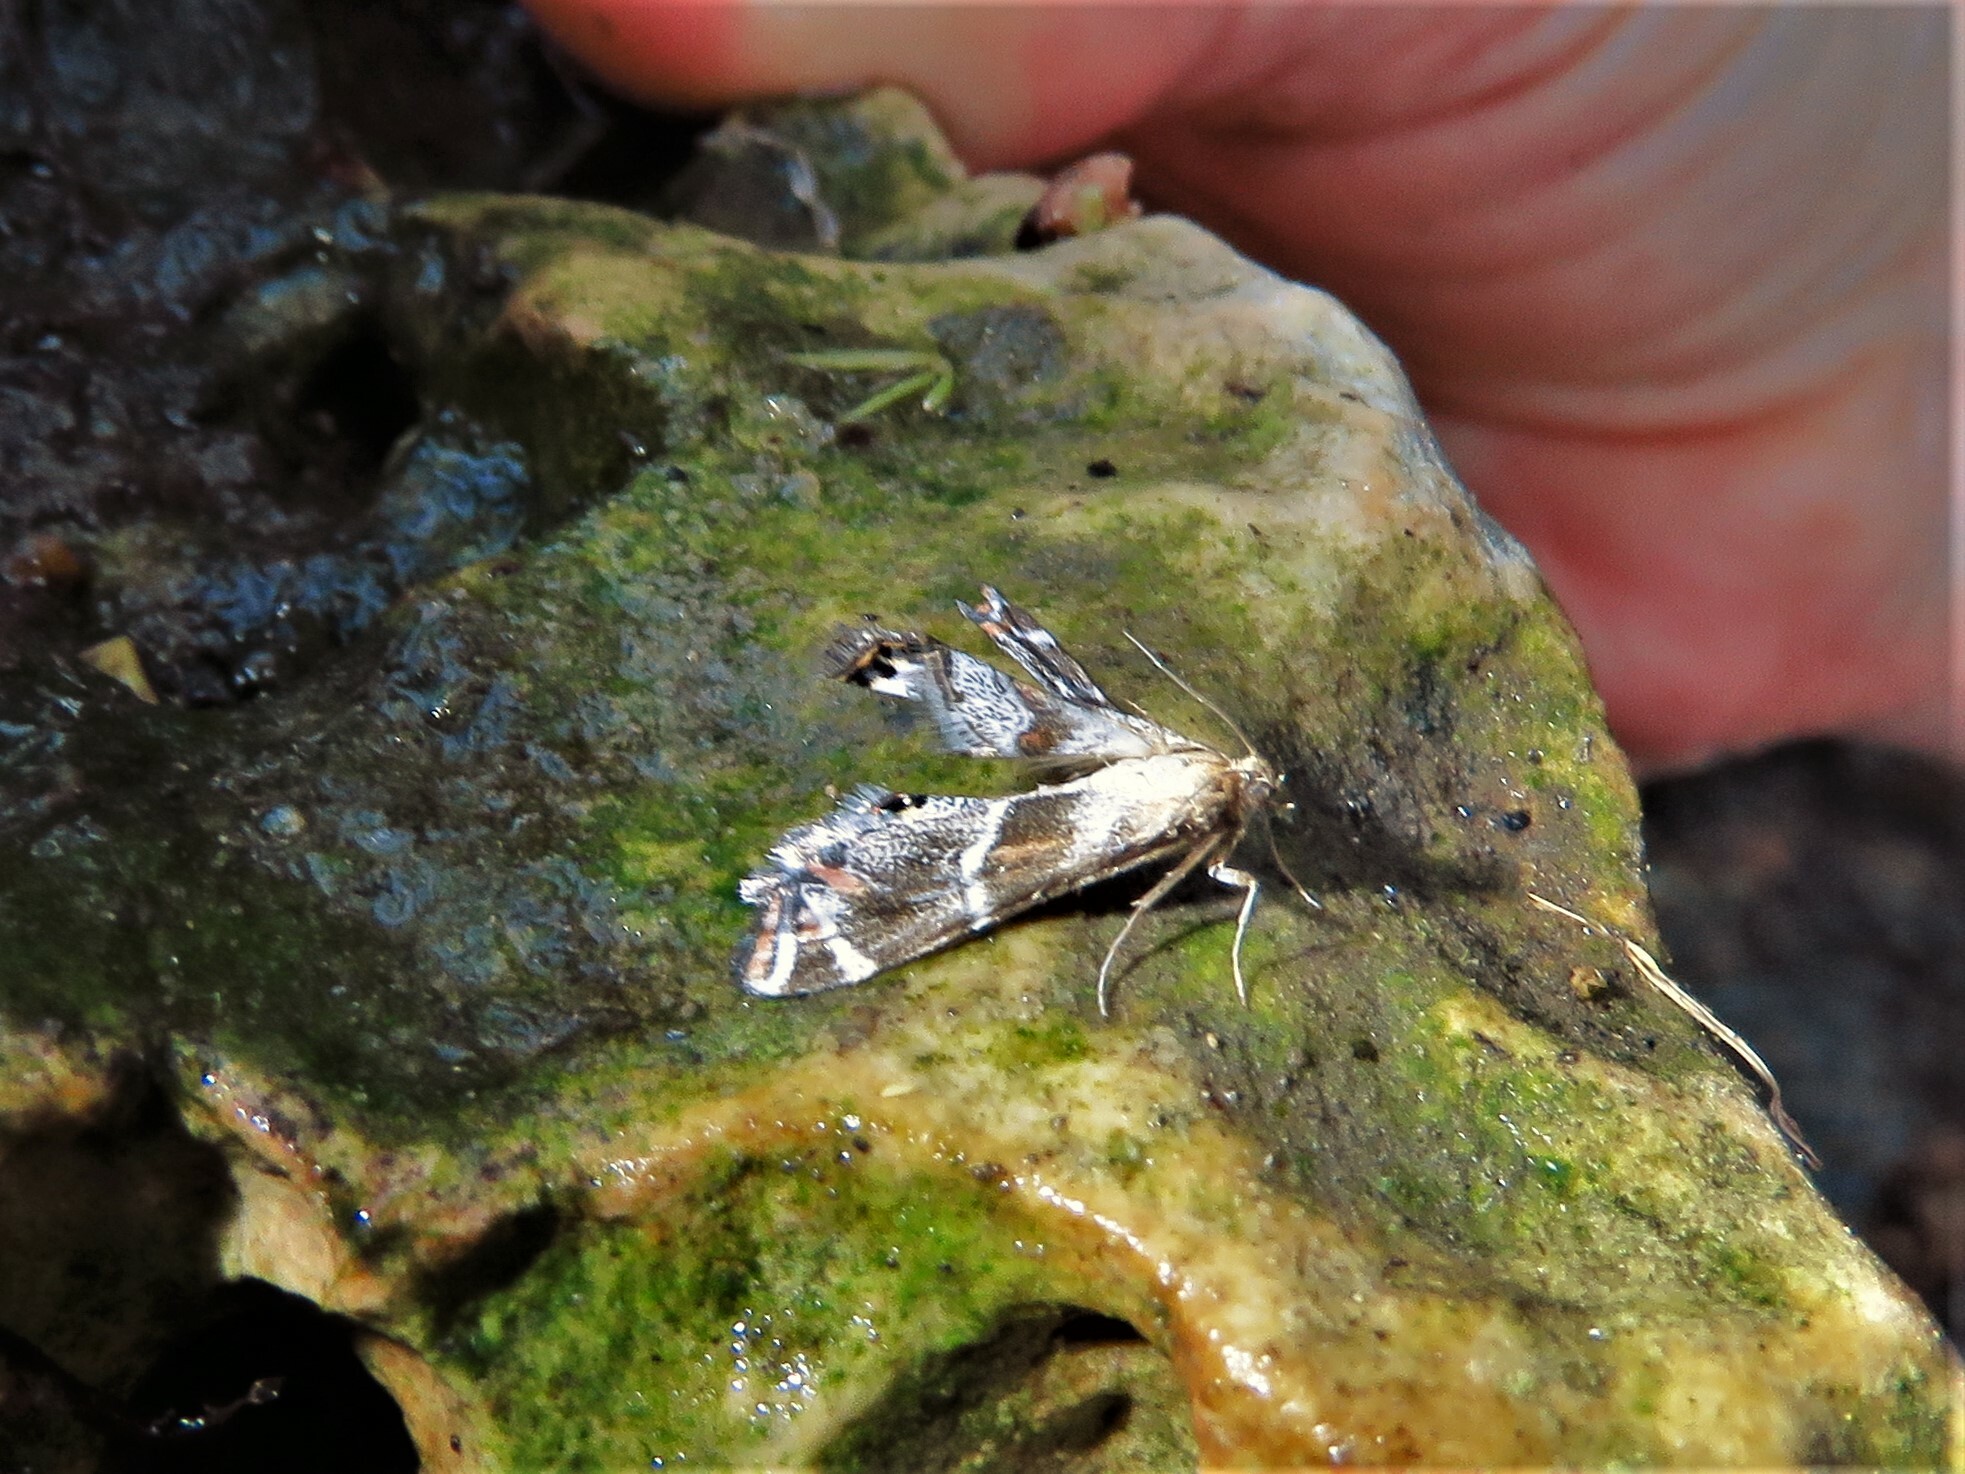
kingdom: Animalia
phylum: Arthropoda
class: Insecta
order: Lepidoptera
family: Crambidae
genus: Petrophila
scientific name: Petrophila jaliscalis
